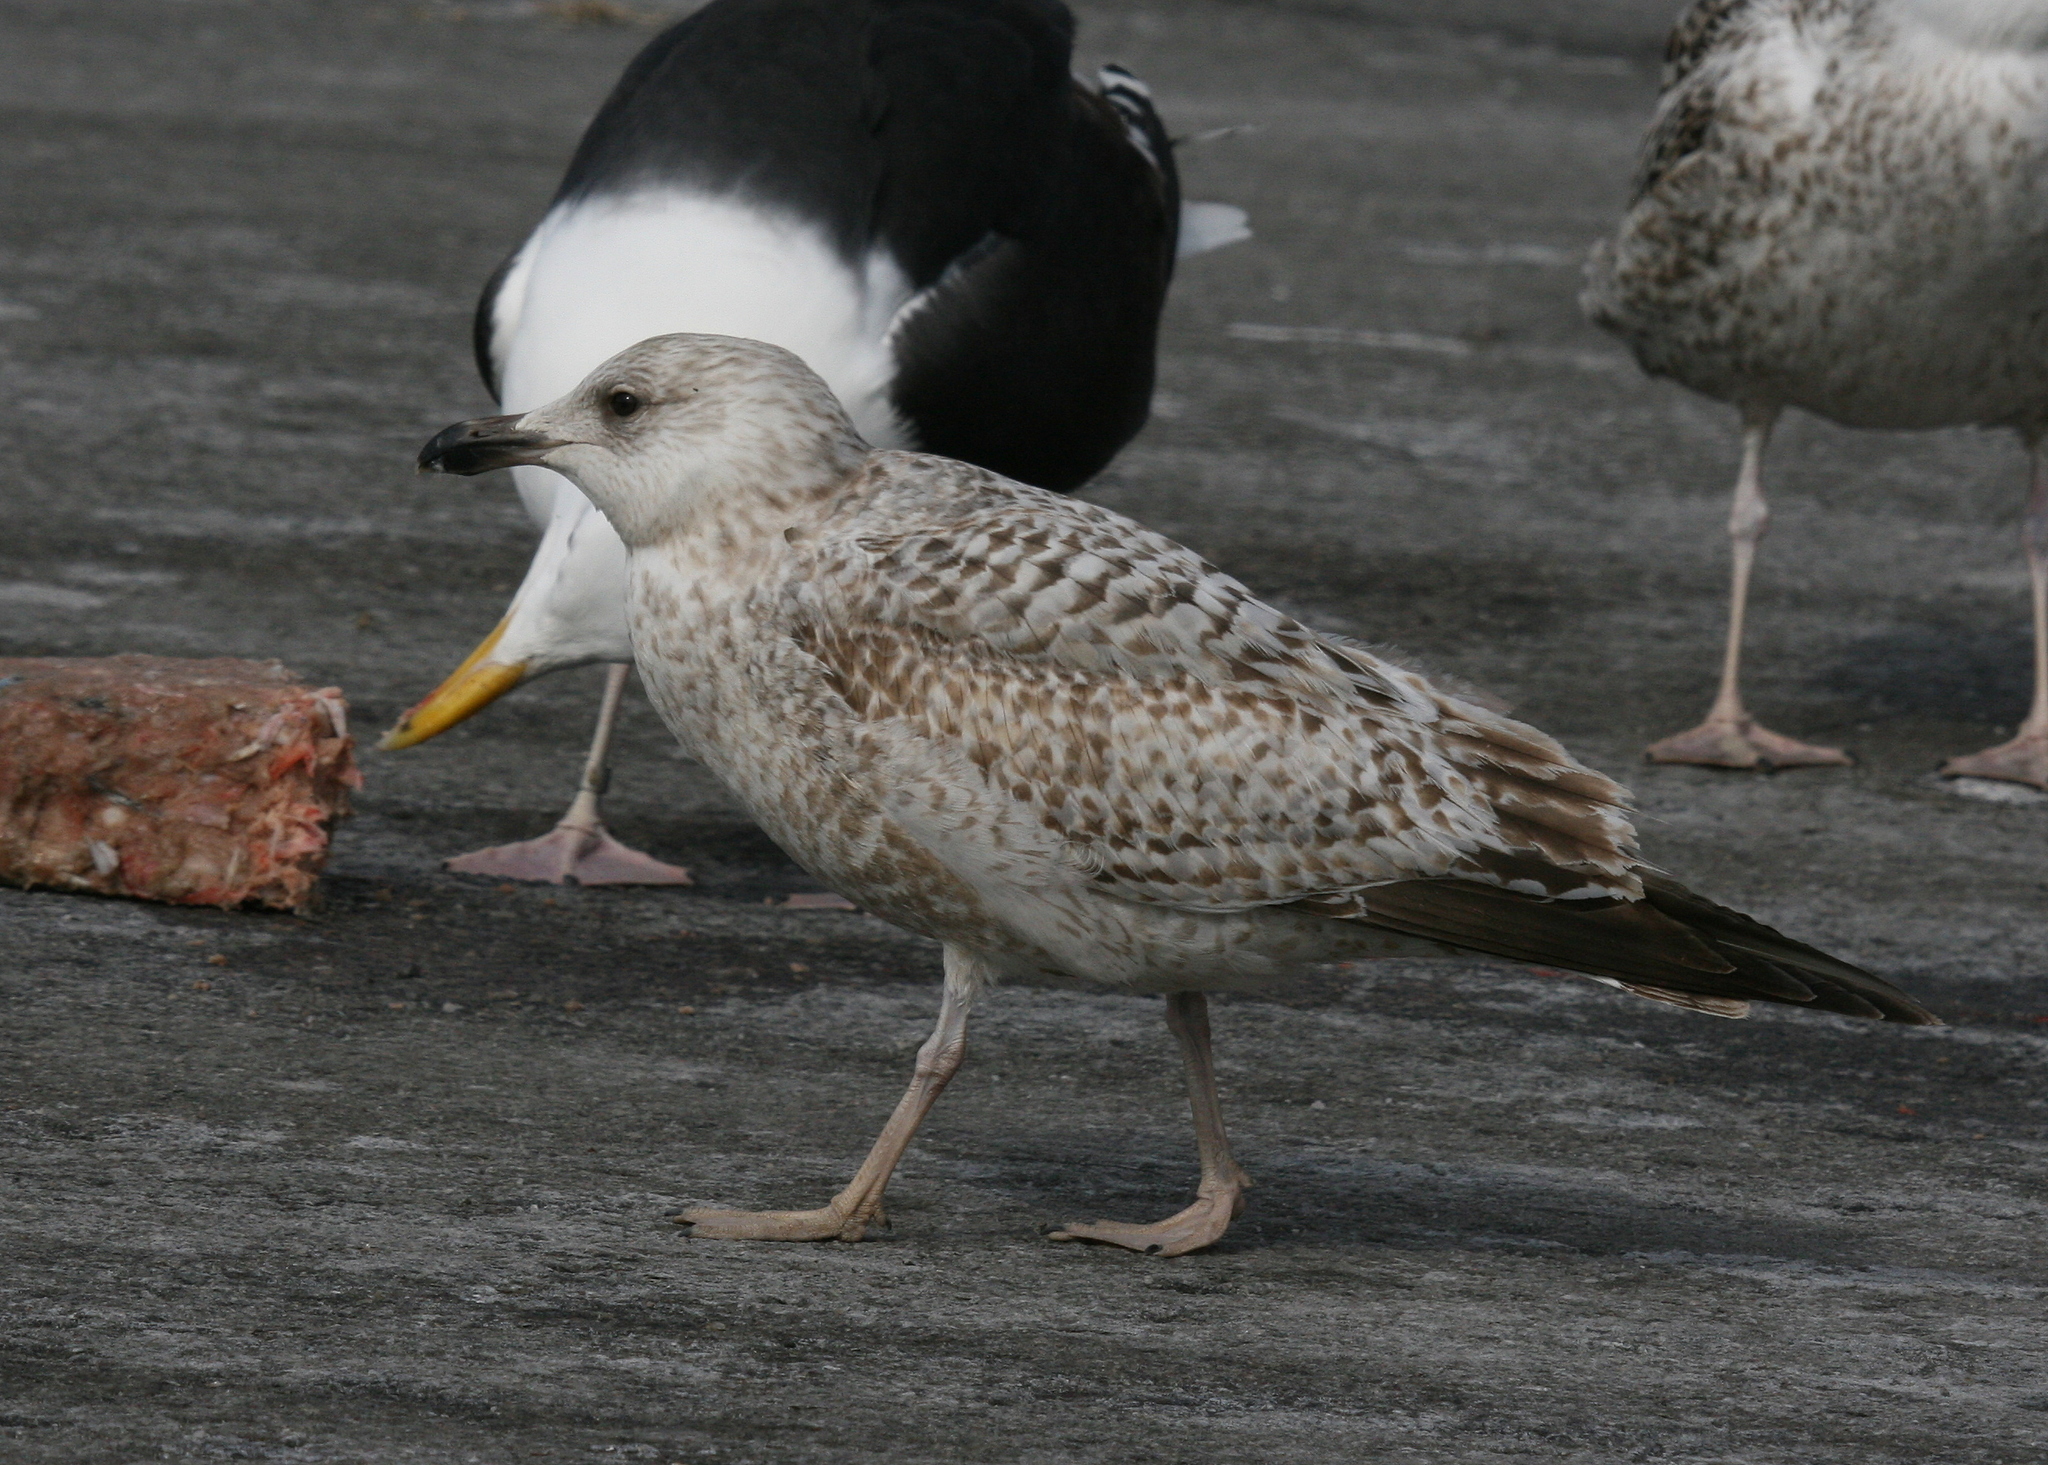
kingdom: Animalia
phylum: Chordata
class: Aves
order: Charadriiformes
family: Laridae
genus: Larus
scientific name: Larus argentatus
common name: Herring gull
